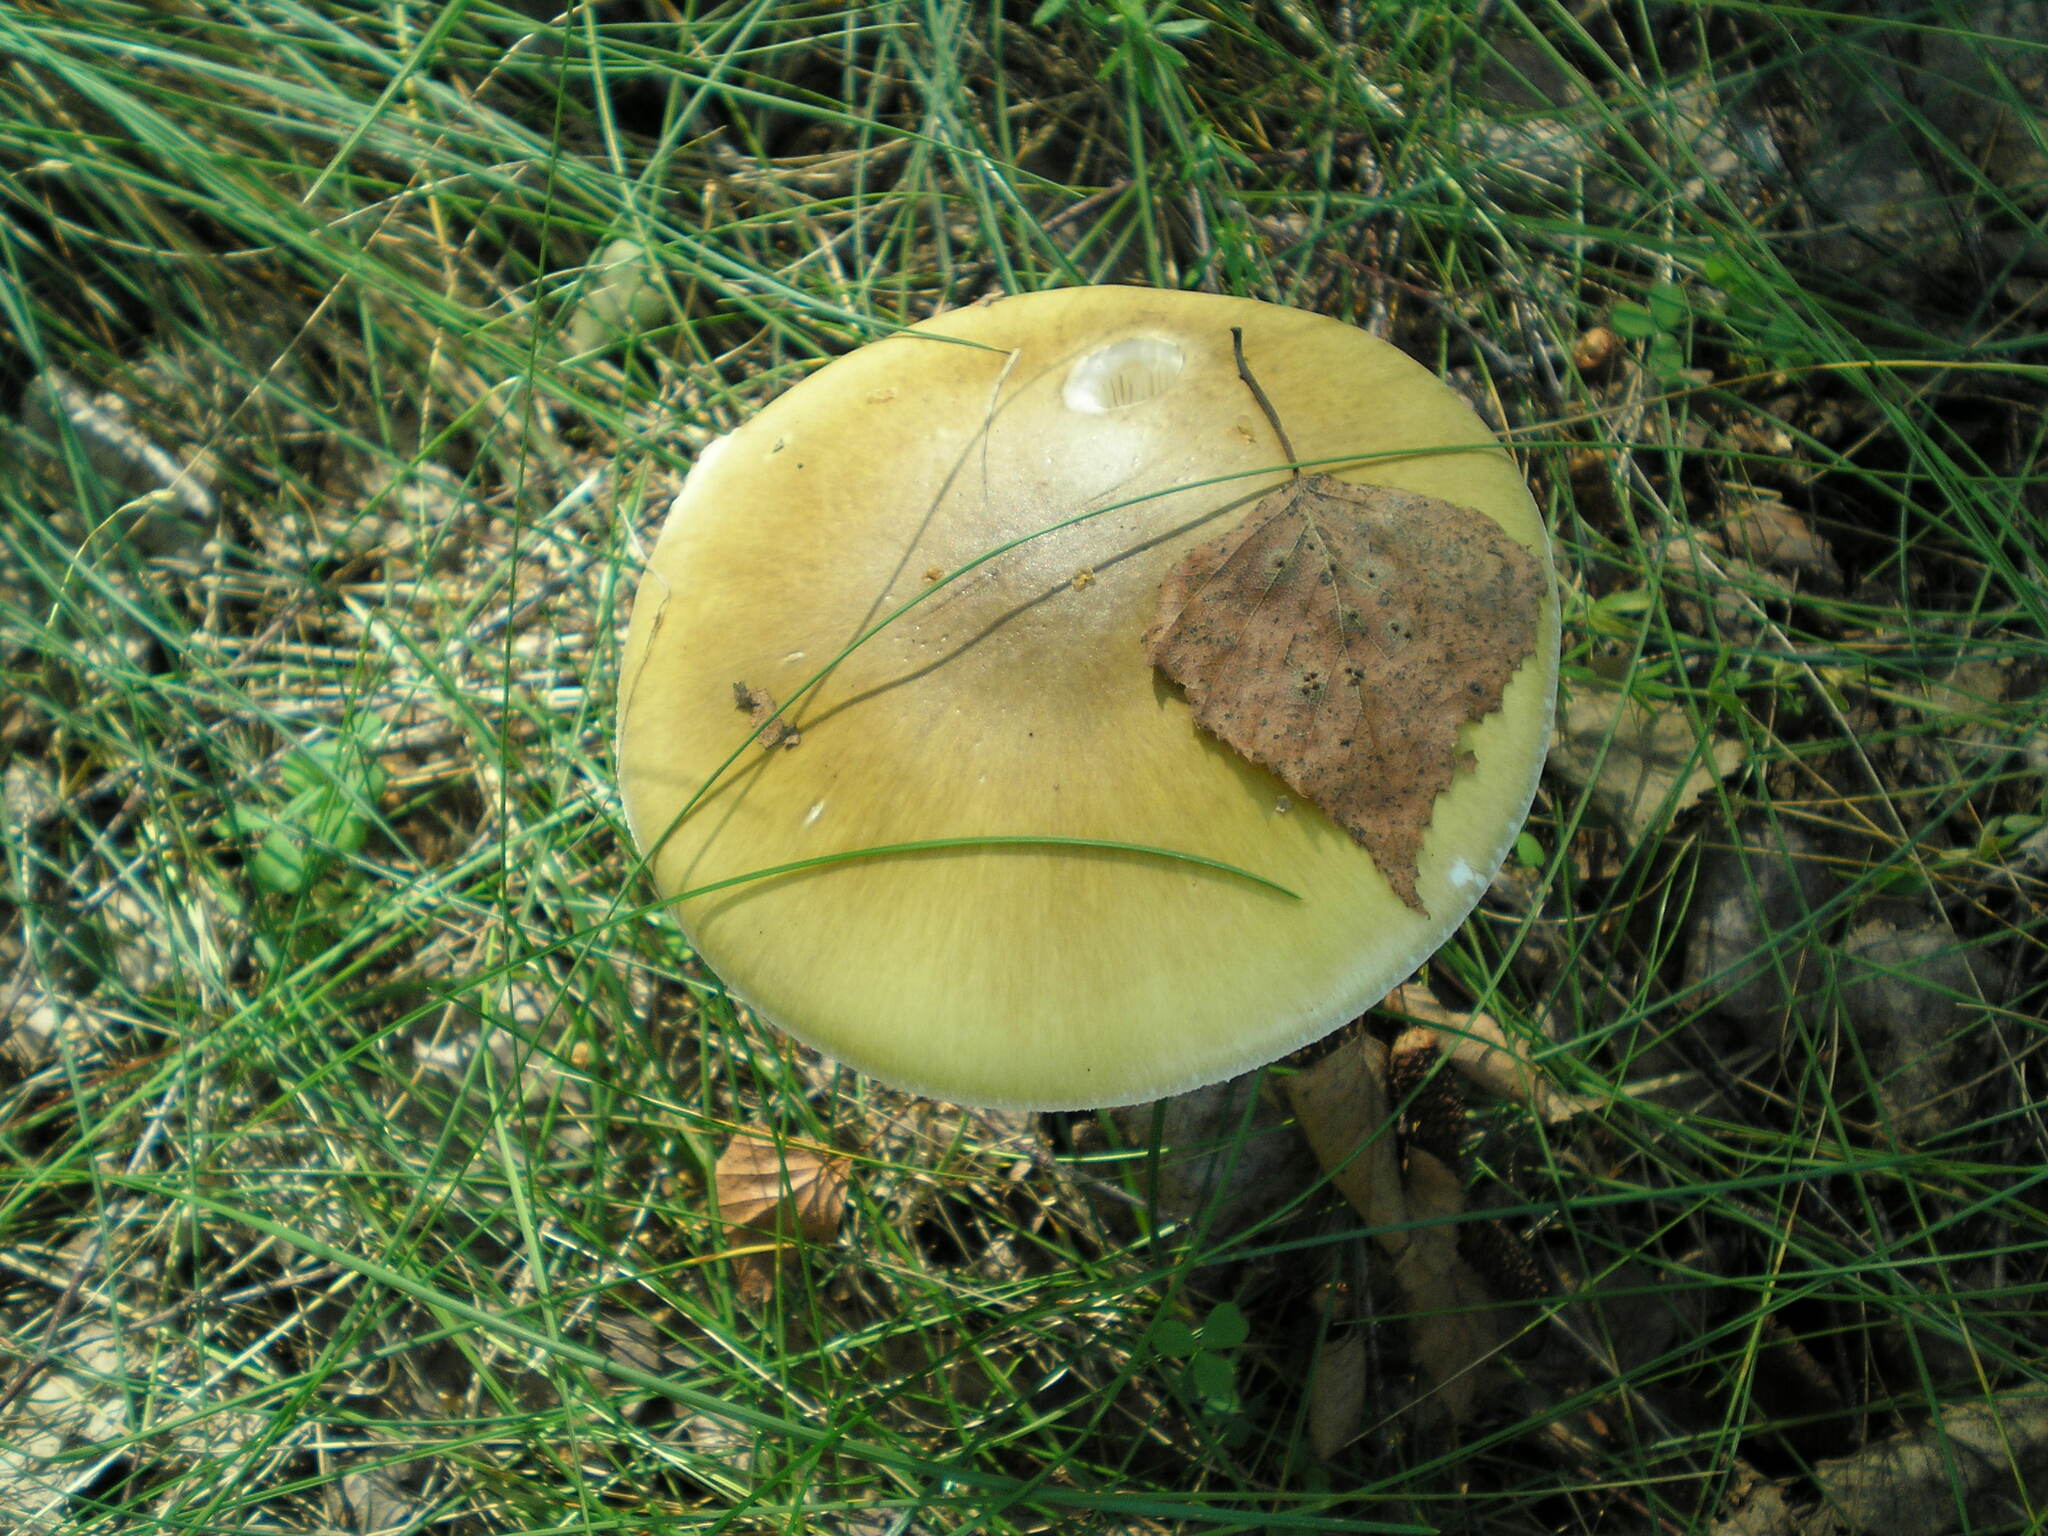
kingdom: Fungi
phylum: Basidiomycota
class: Agaricomycetes
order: Agaricales
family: Amanitaceae
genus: Amanita
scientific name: Amanita phalloides
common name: Death cap
